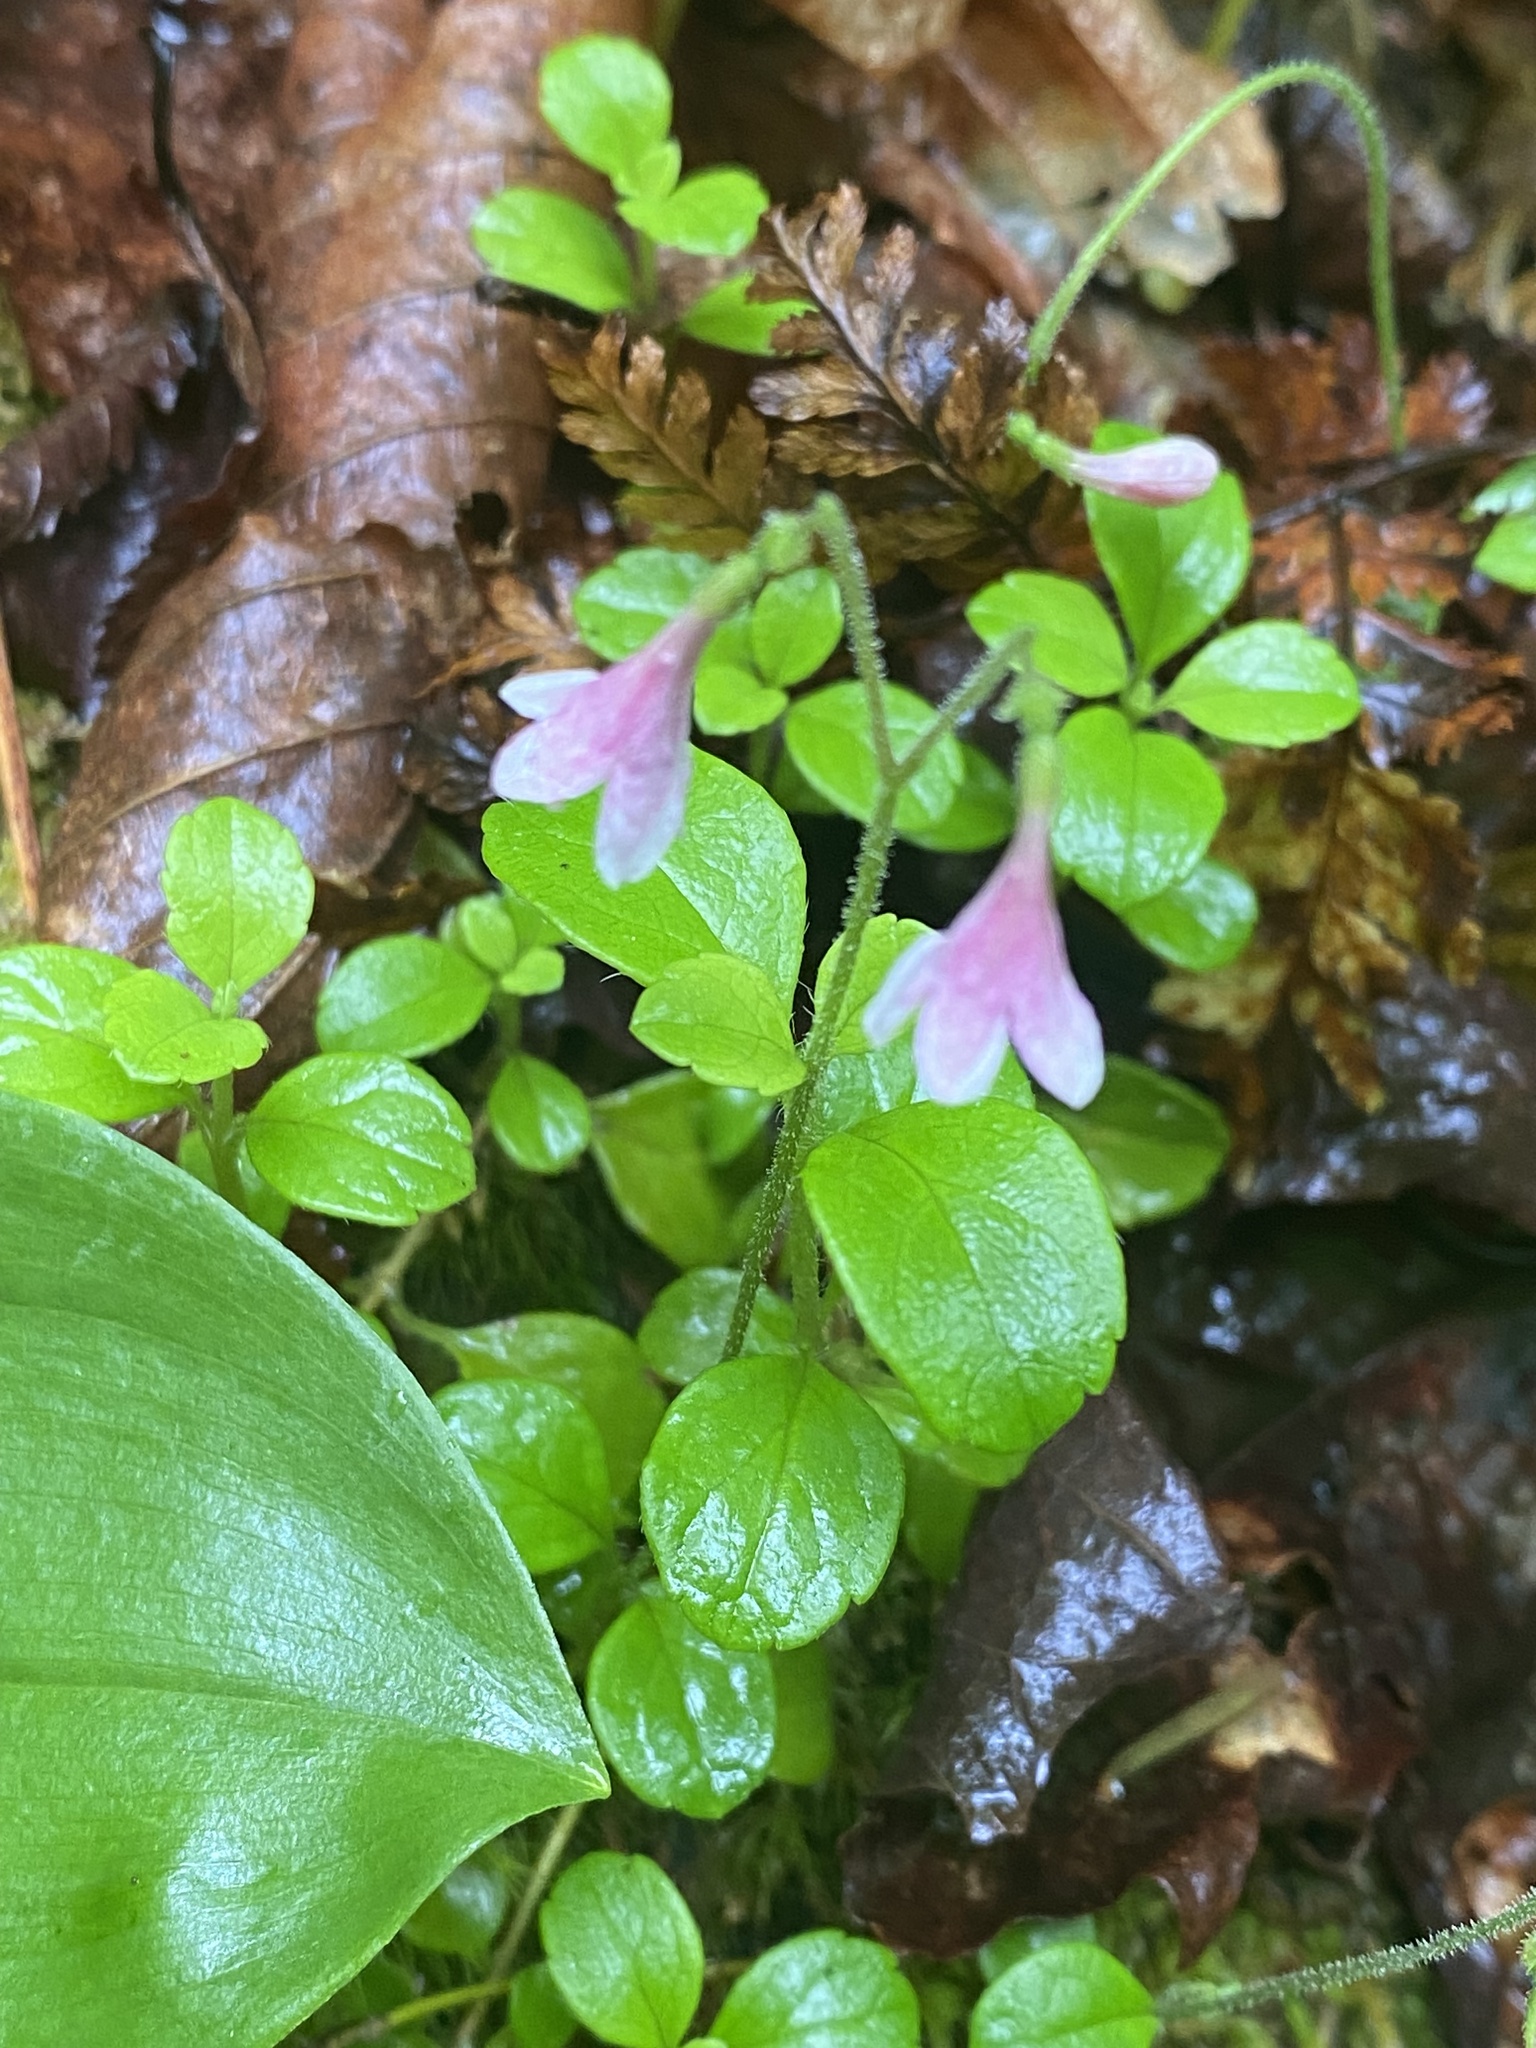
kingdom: Plantae
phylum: Tracheophyta
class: Magnoliopsida
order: Dipsacales
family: Caprifoliaceae
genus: Linnaea
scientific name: Linnaea borealis
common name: Twinflower
